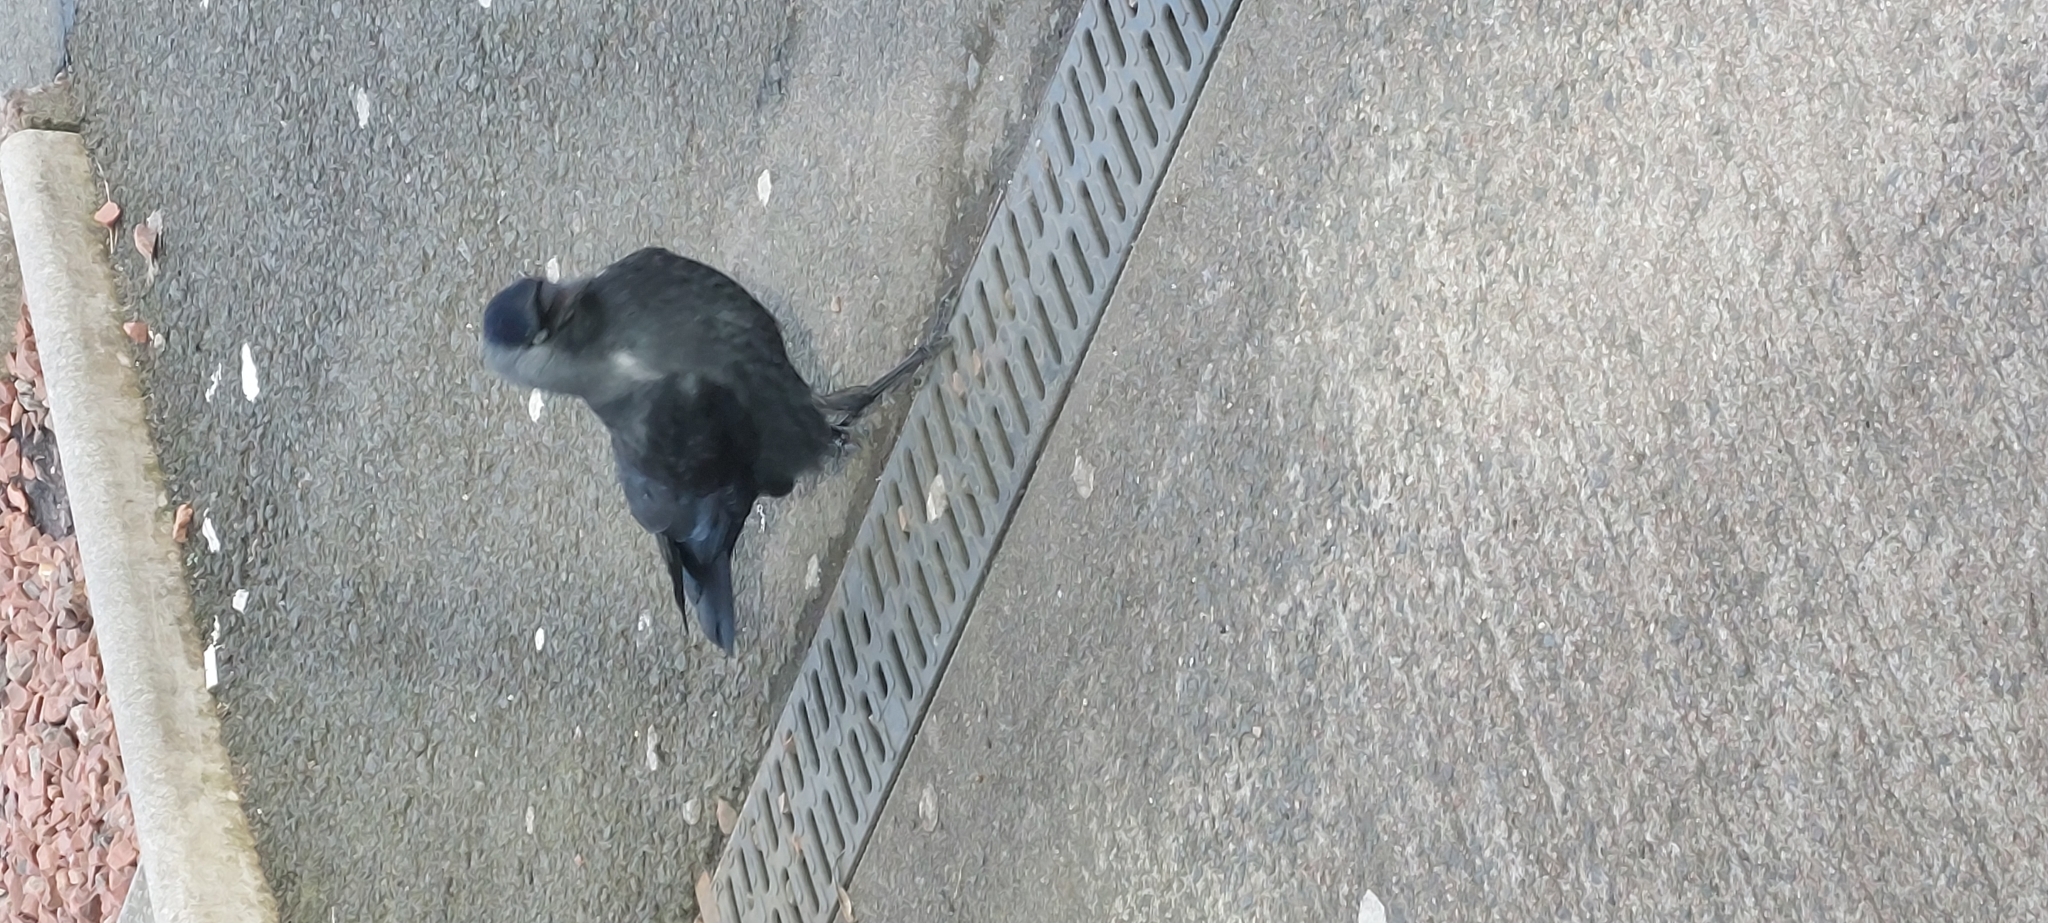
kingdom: Animalia
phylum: Chordata
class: Aves
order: Passeriformes
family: Corvidae
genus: Coloeus
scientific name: Coloeus monedula
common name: Western jackdaw
